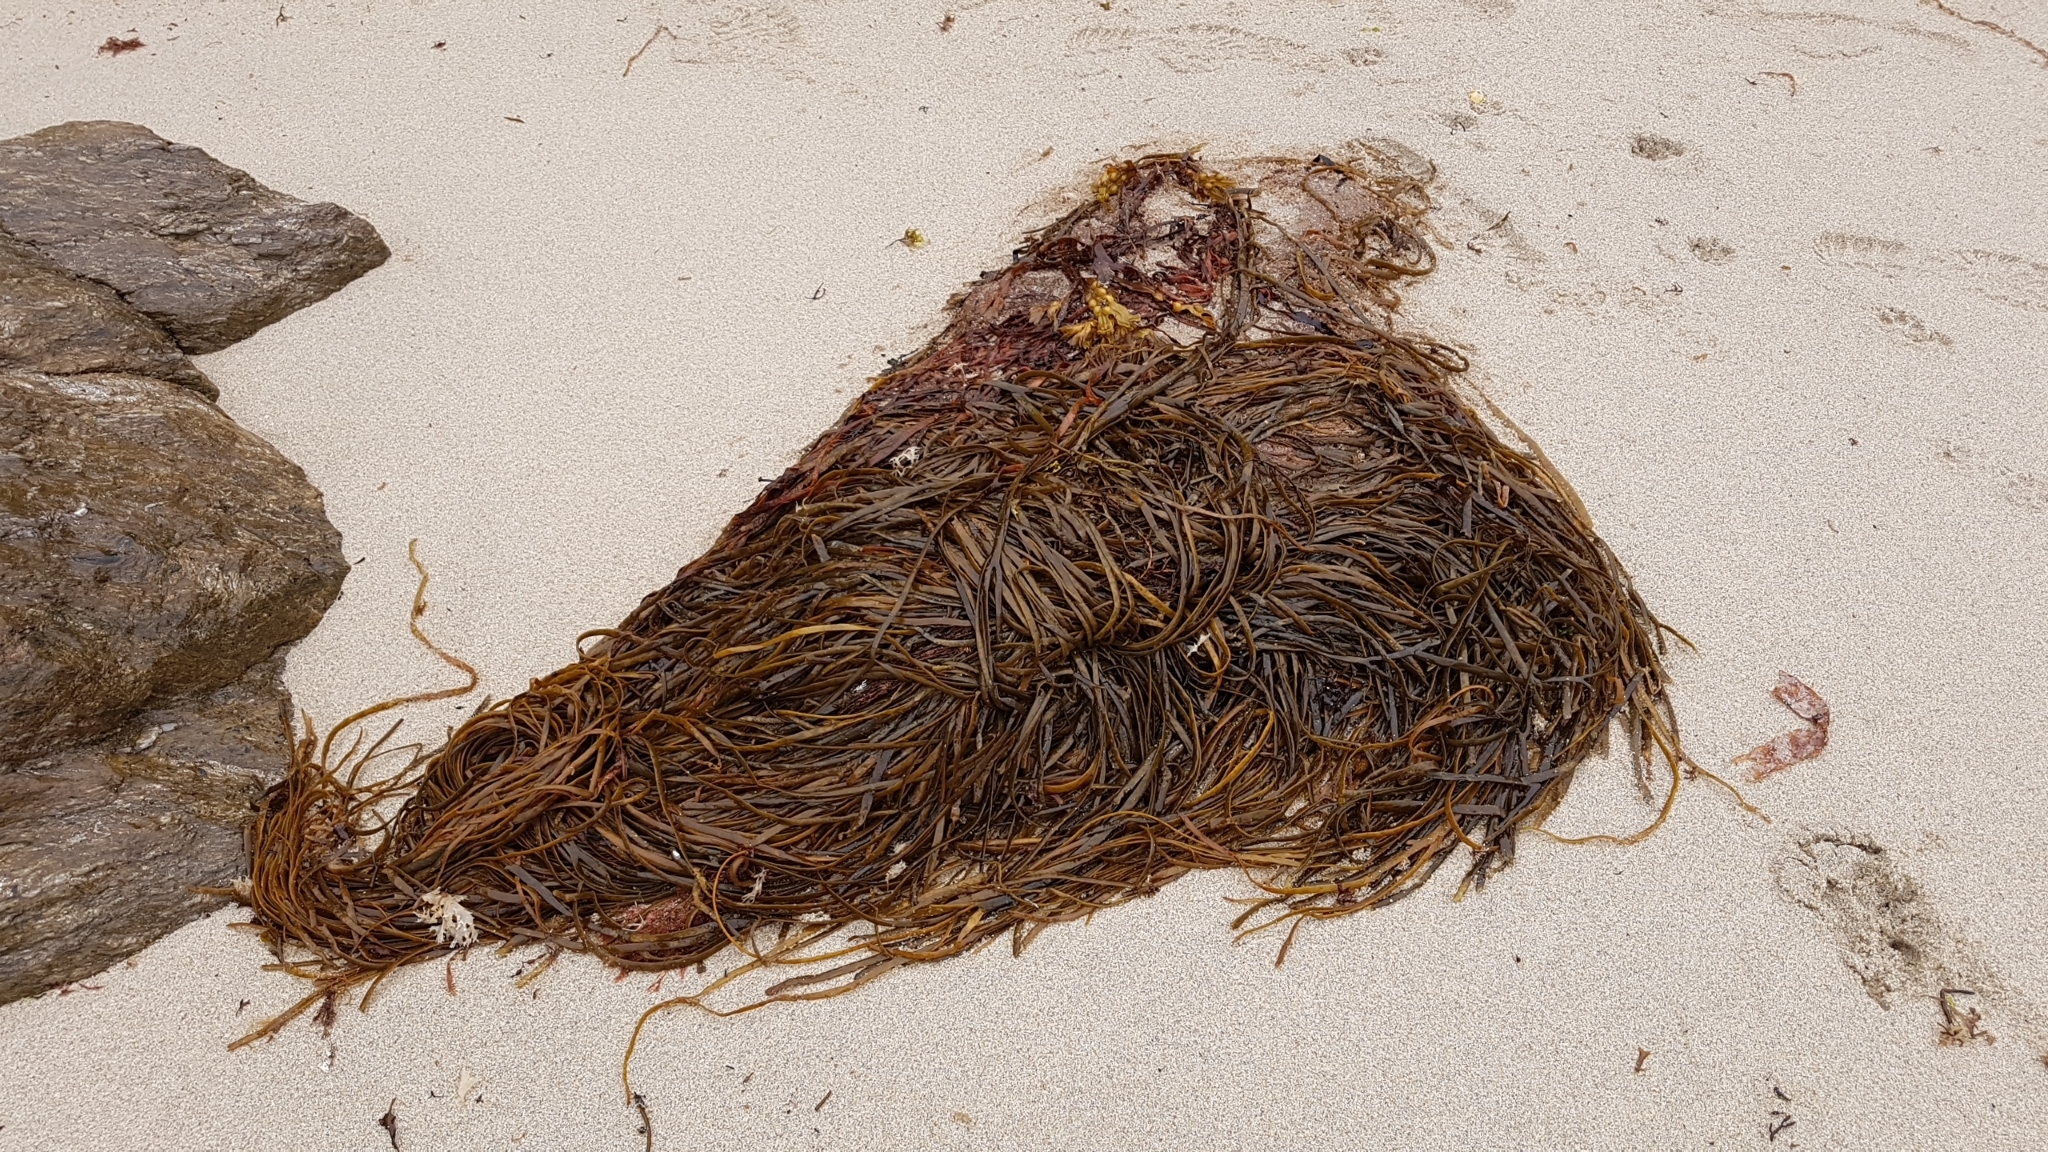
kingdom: Chromista
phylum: Ochrophyta
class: Phaeophyceae
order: Fucales
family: Himanthaliaceae
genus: Himanthalia
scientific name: Himanthalia elongata
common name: Sea-thong
